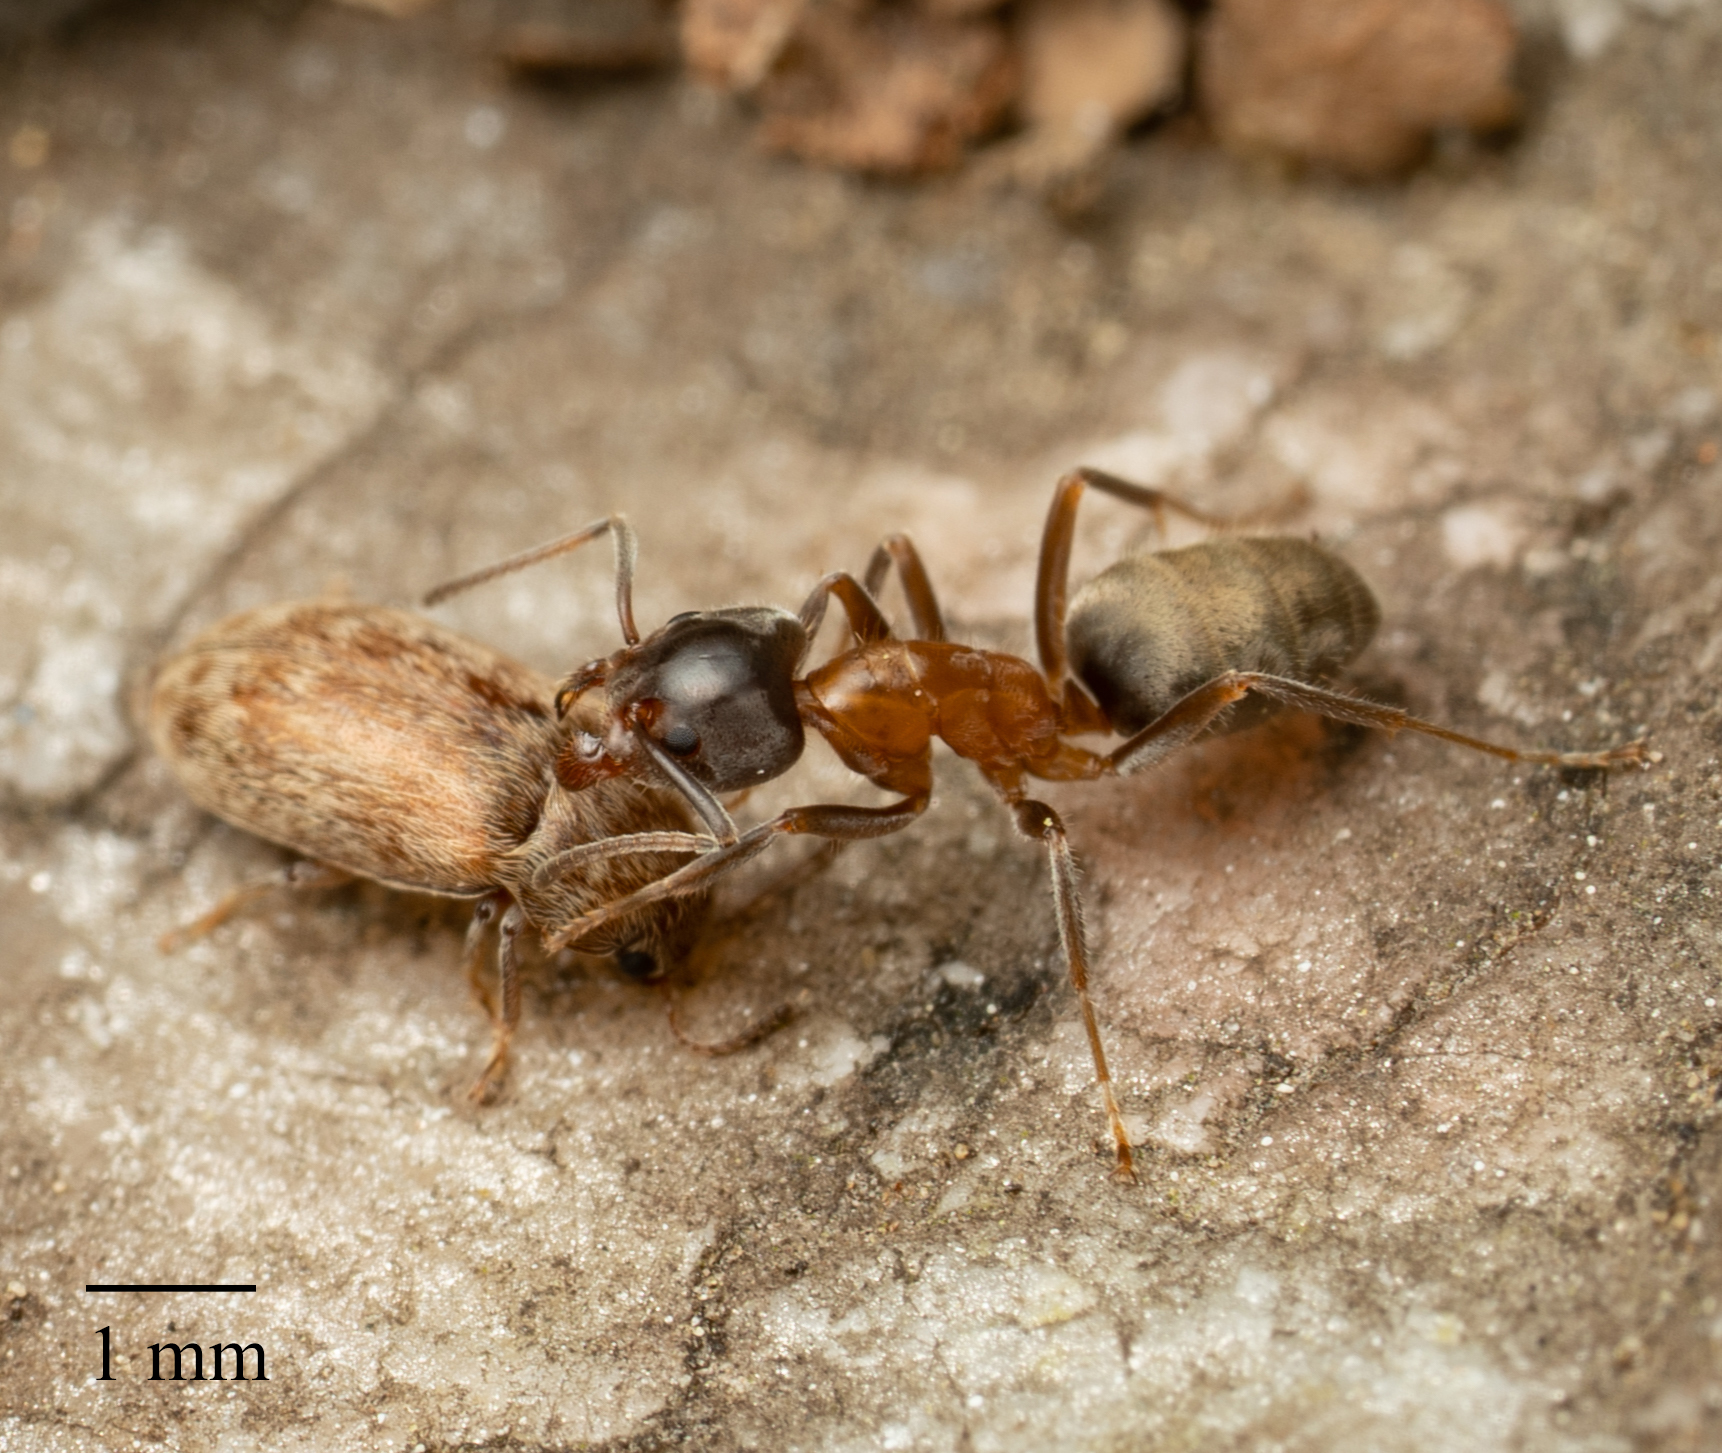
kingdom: Animalia
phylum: Arthropoda
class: Insecta
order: Hymenoptera
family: Formicidae
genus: Liometopum
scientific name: Liometopum occidentale
